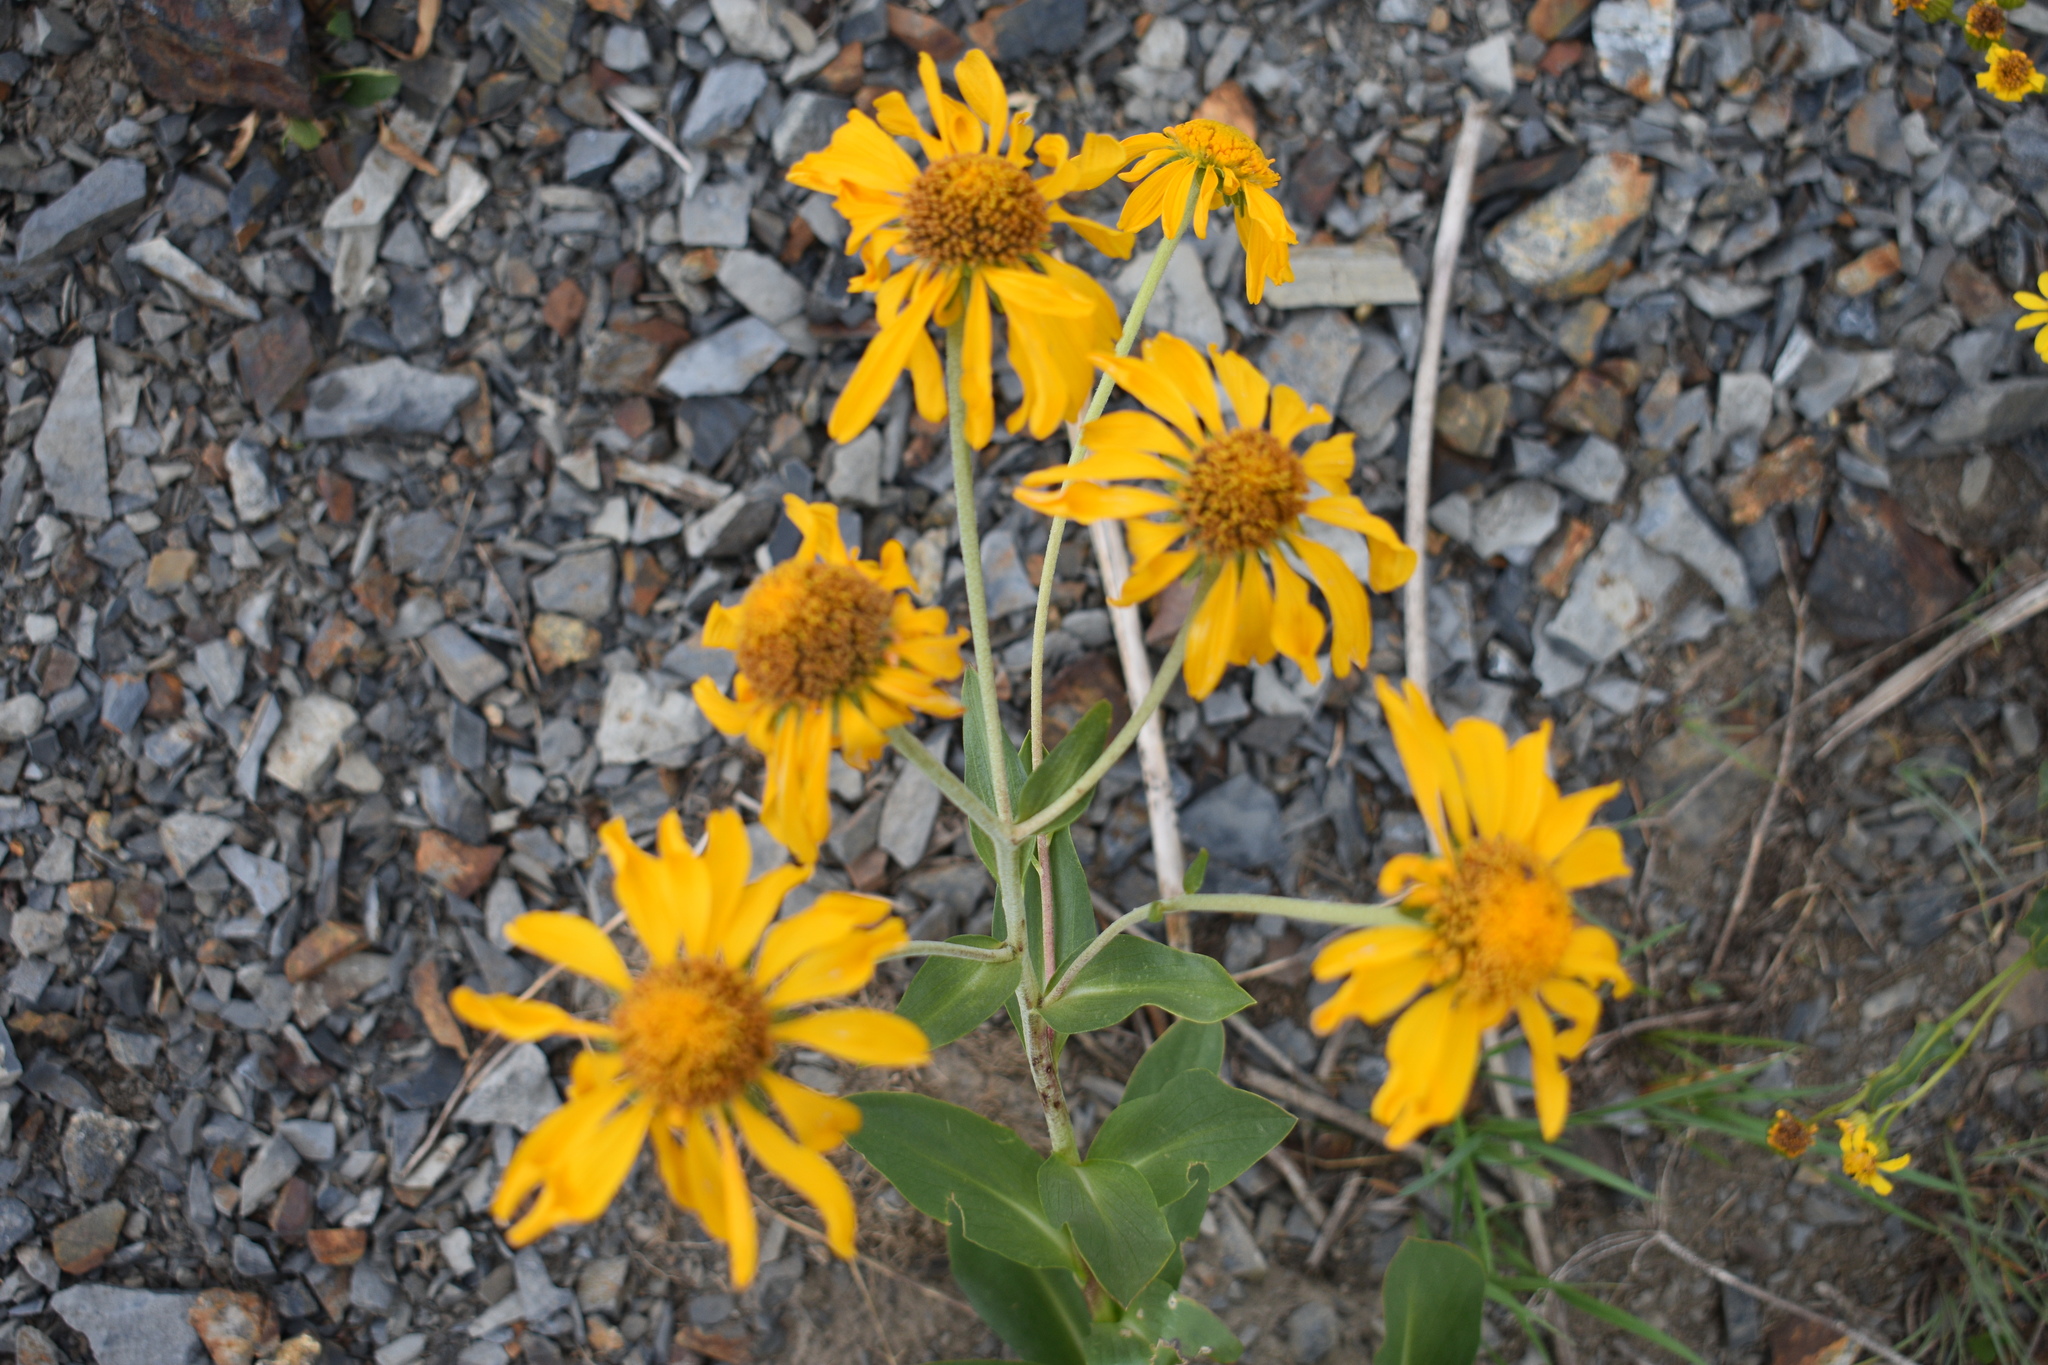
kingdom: Plantae
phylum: Tracheophyta
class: Magnoliopsida
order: Asterales
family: Asteraceae
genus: Hymenoxys
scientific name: Hymenoxys hoopesii
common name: Orange-sneezeweed
